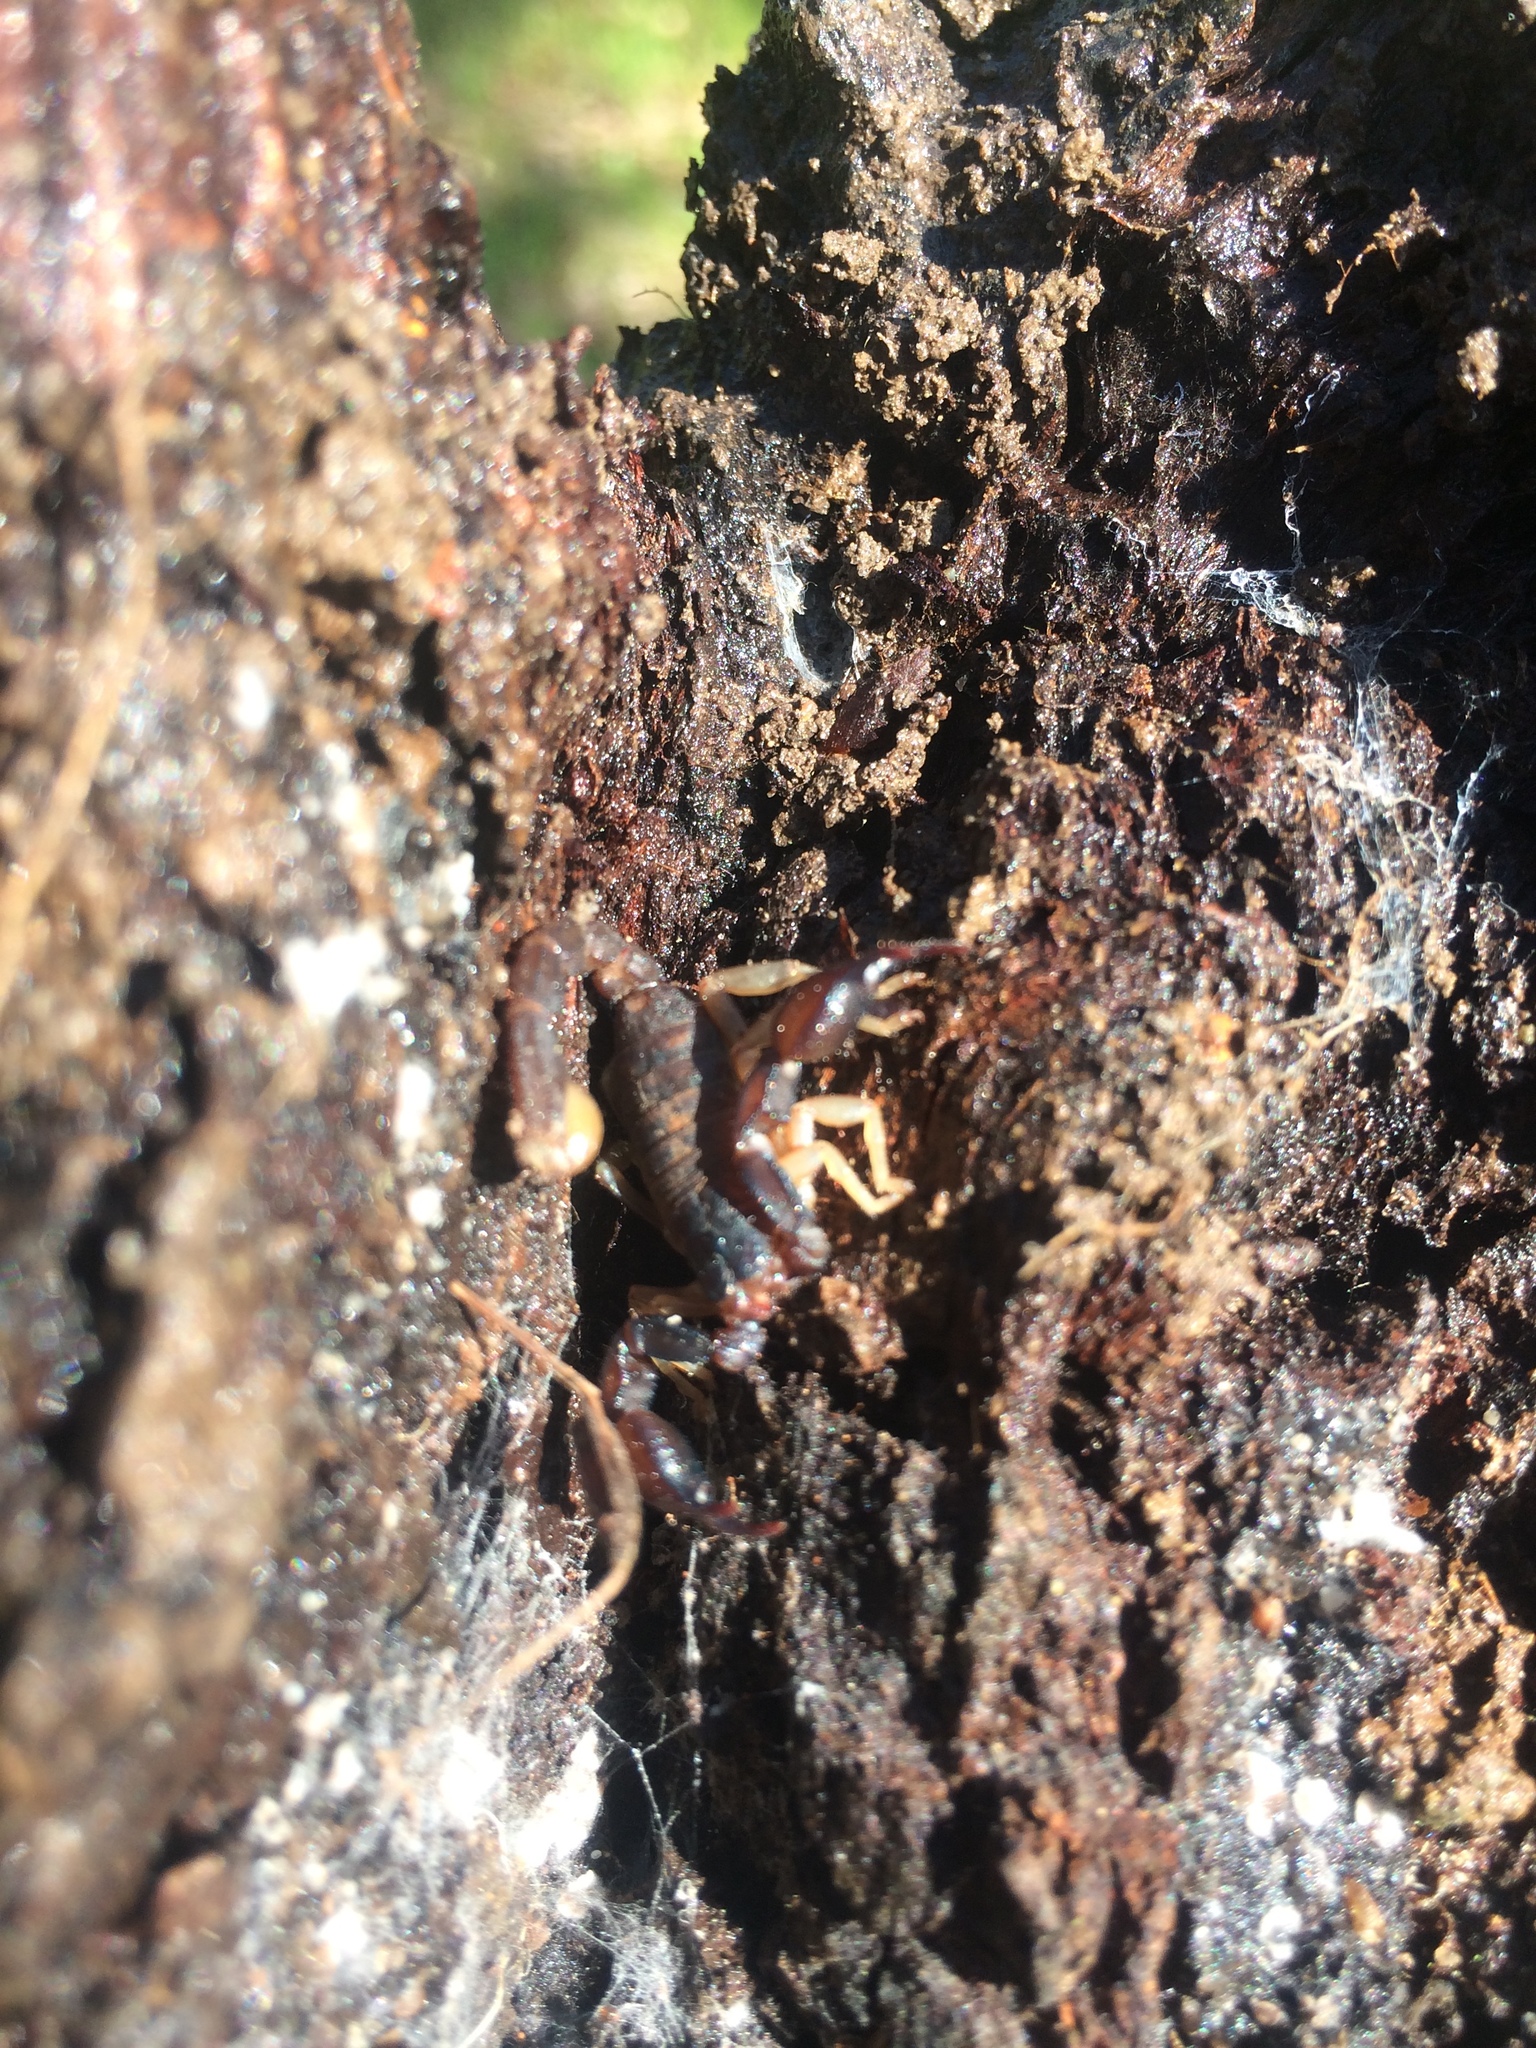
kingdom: Animalia
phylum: Arthropoda
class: Arachnida
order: Scorpiones
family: Chactidae
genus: Uroctonus
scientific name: Uroctonus mordax
